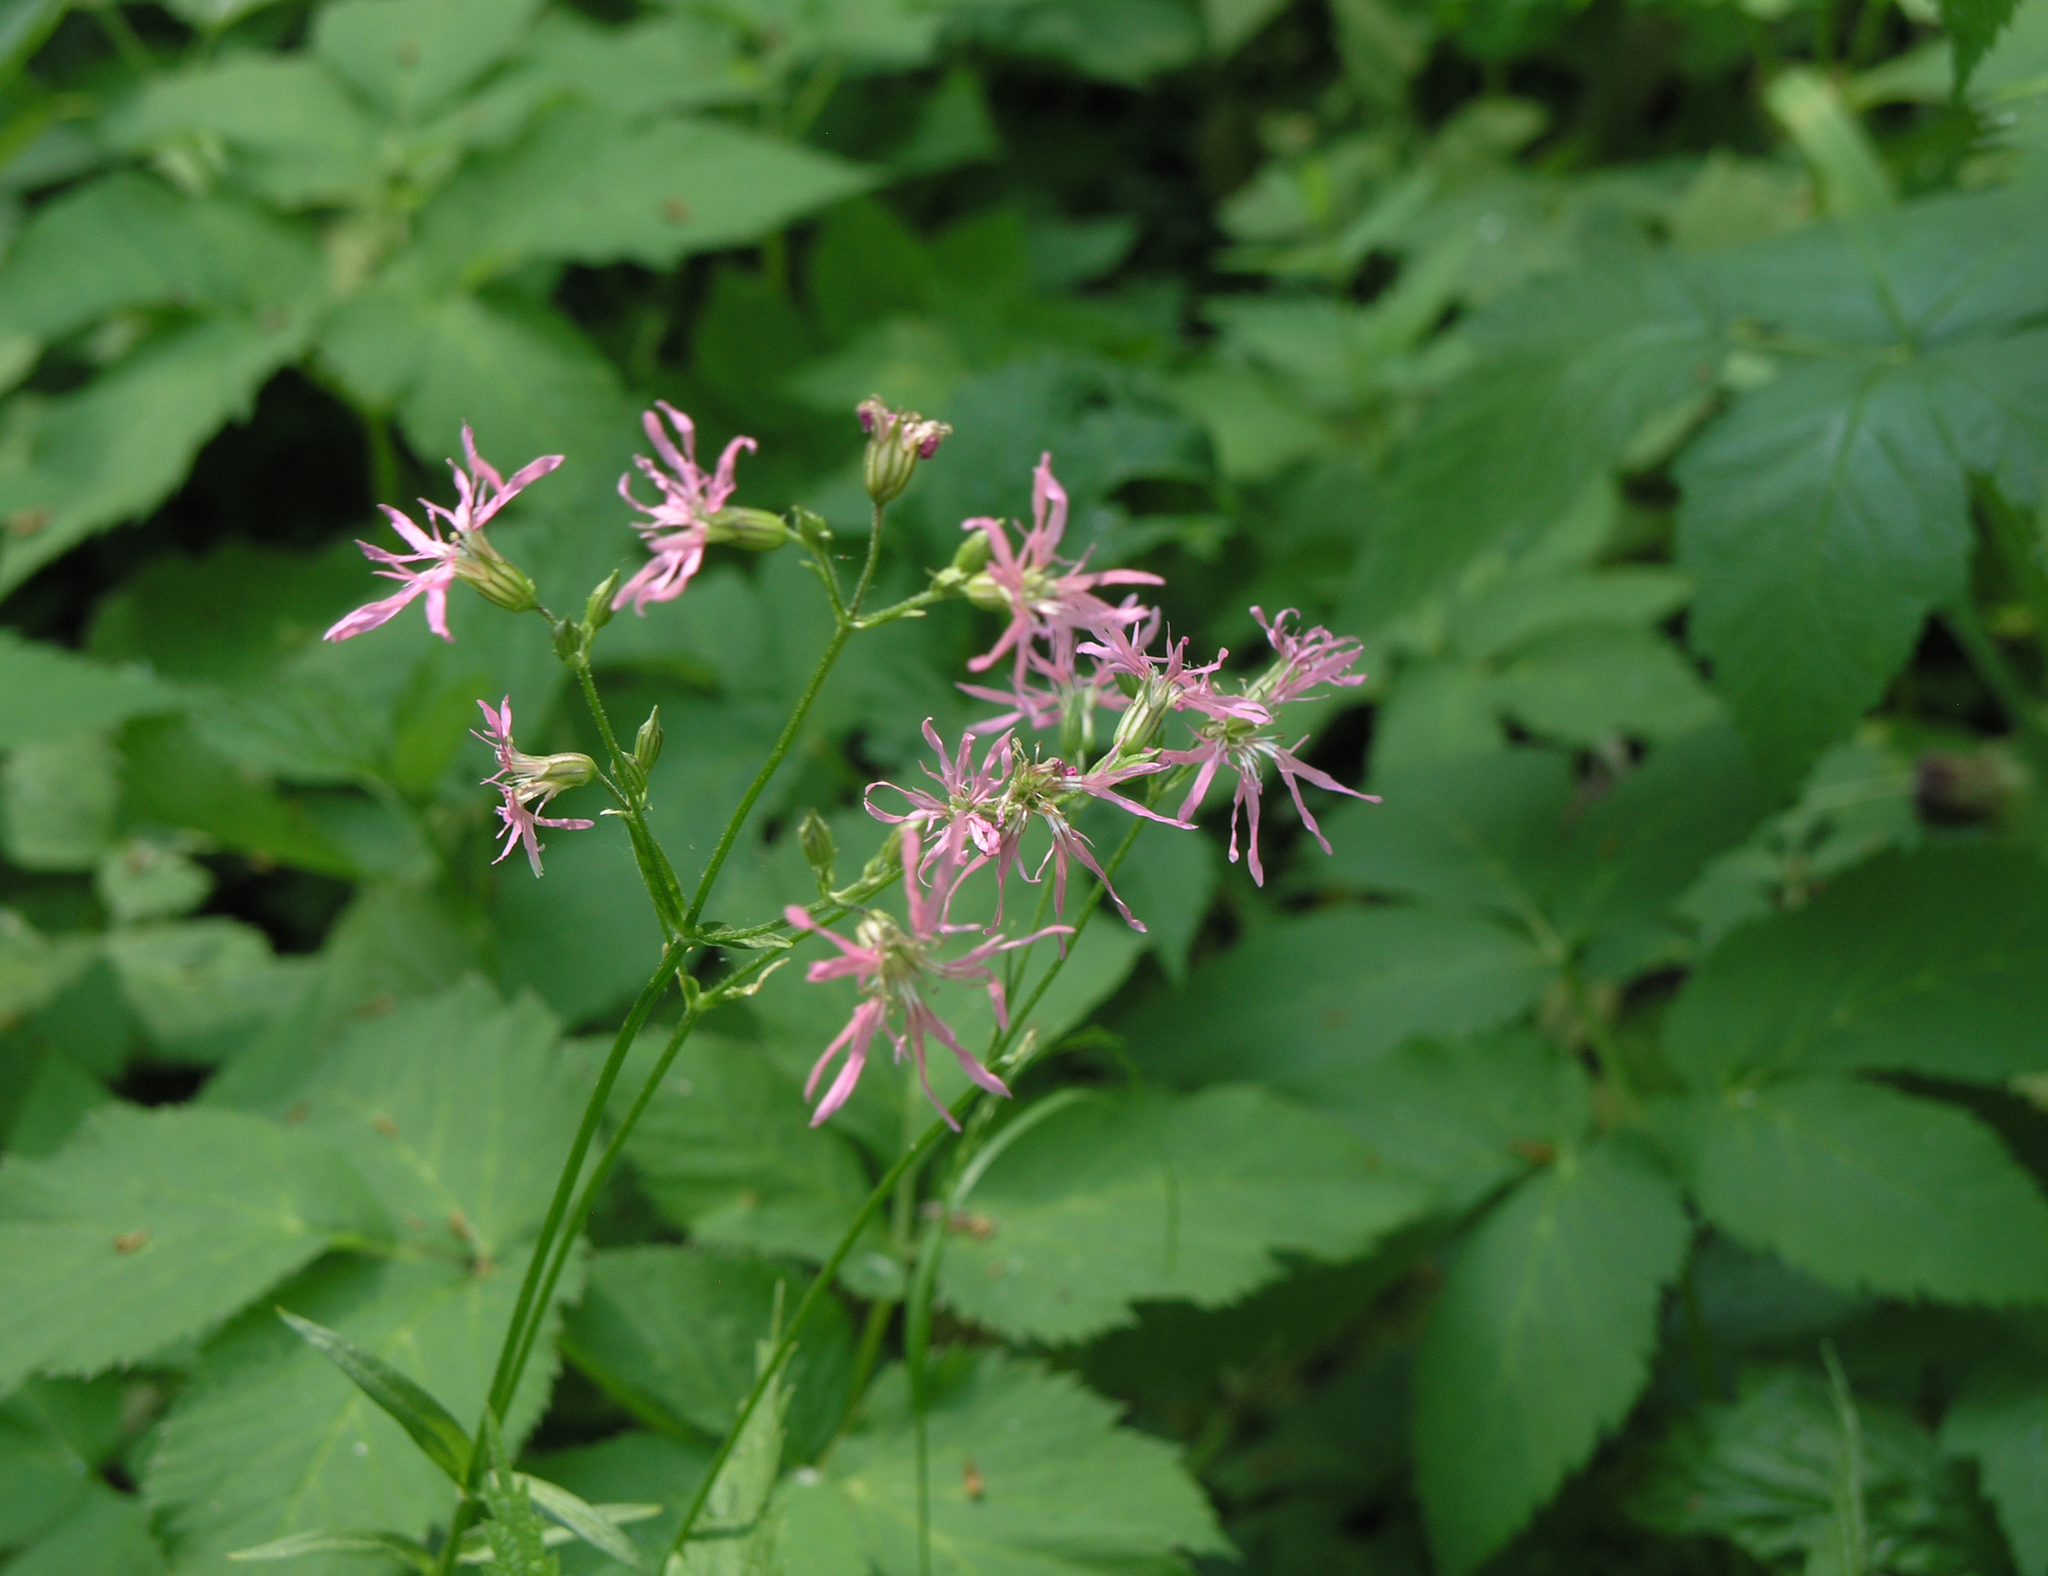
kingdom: Plantae
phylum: Tracheophyta
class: Magnoliopsida
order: Caryophyllales
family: Caryophyllaceae
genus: Silene
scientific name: Silene flos-cuculi
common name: Ragged-robin
